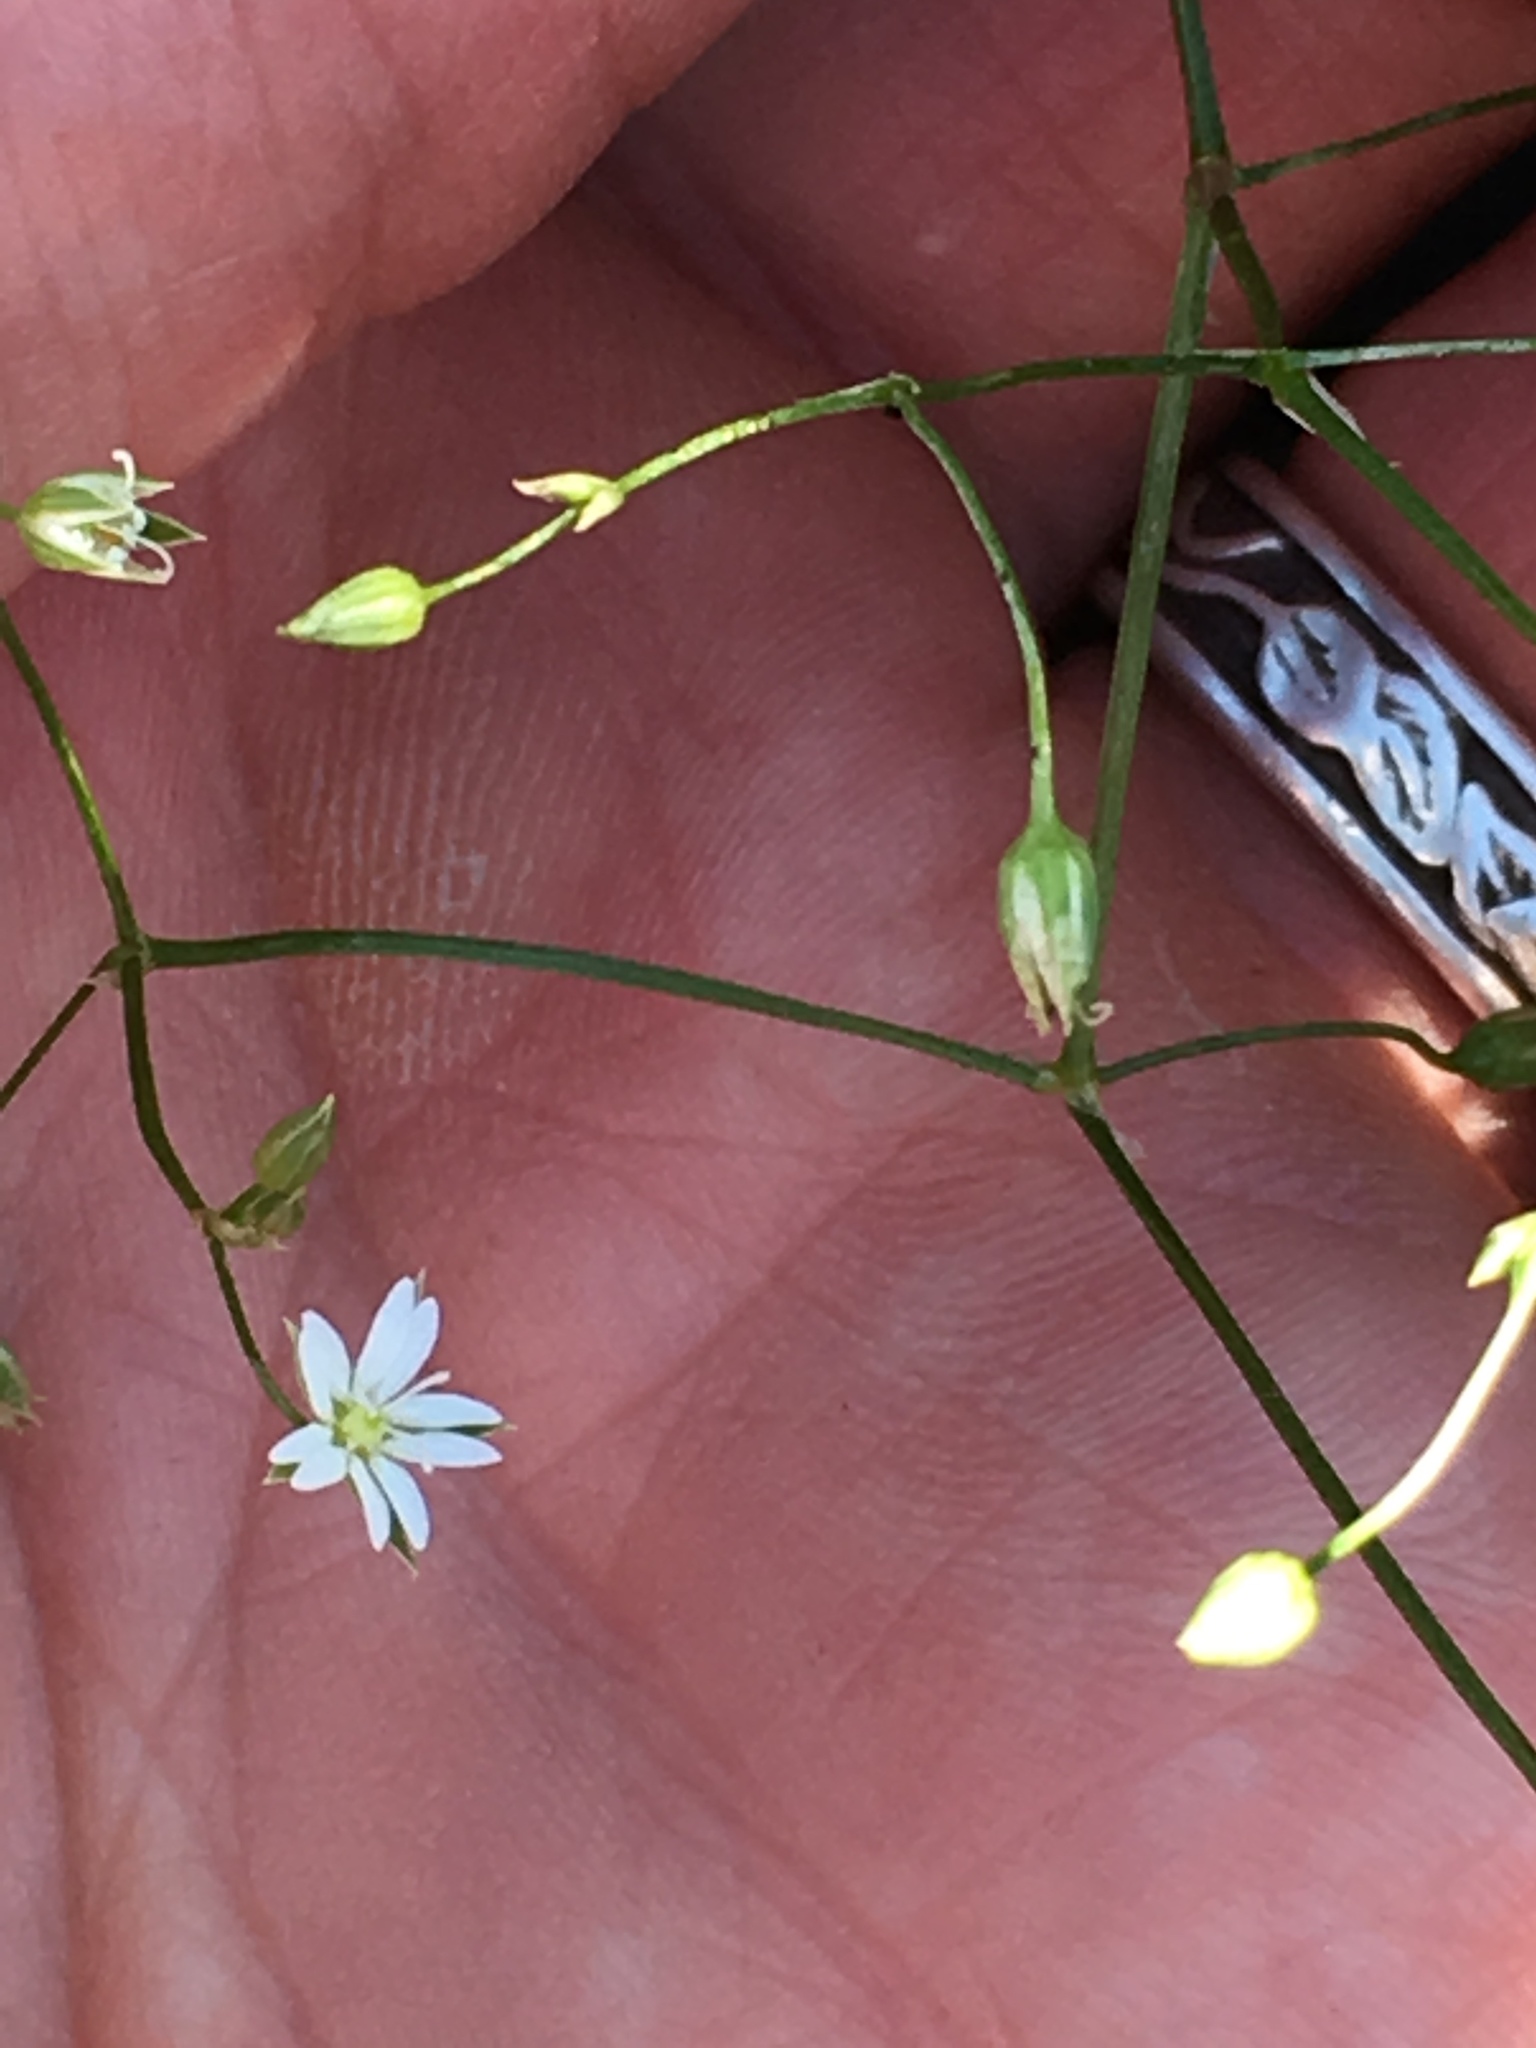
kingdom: Plantae
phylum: Tracheophyta
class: Magnoliopsida
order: Caryophyllales
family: Caryophyllaceae
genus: Stellaria
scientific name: Stellaria graminea
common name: Grass-like starwort
